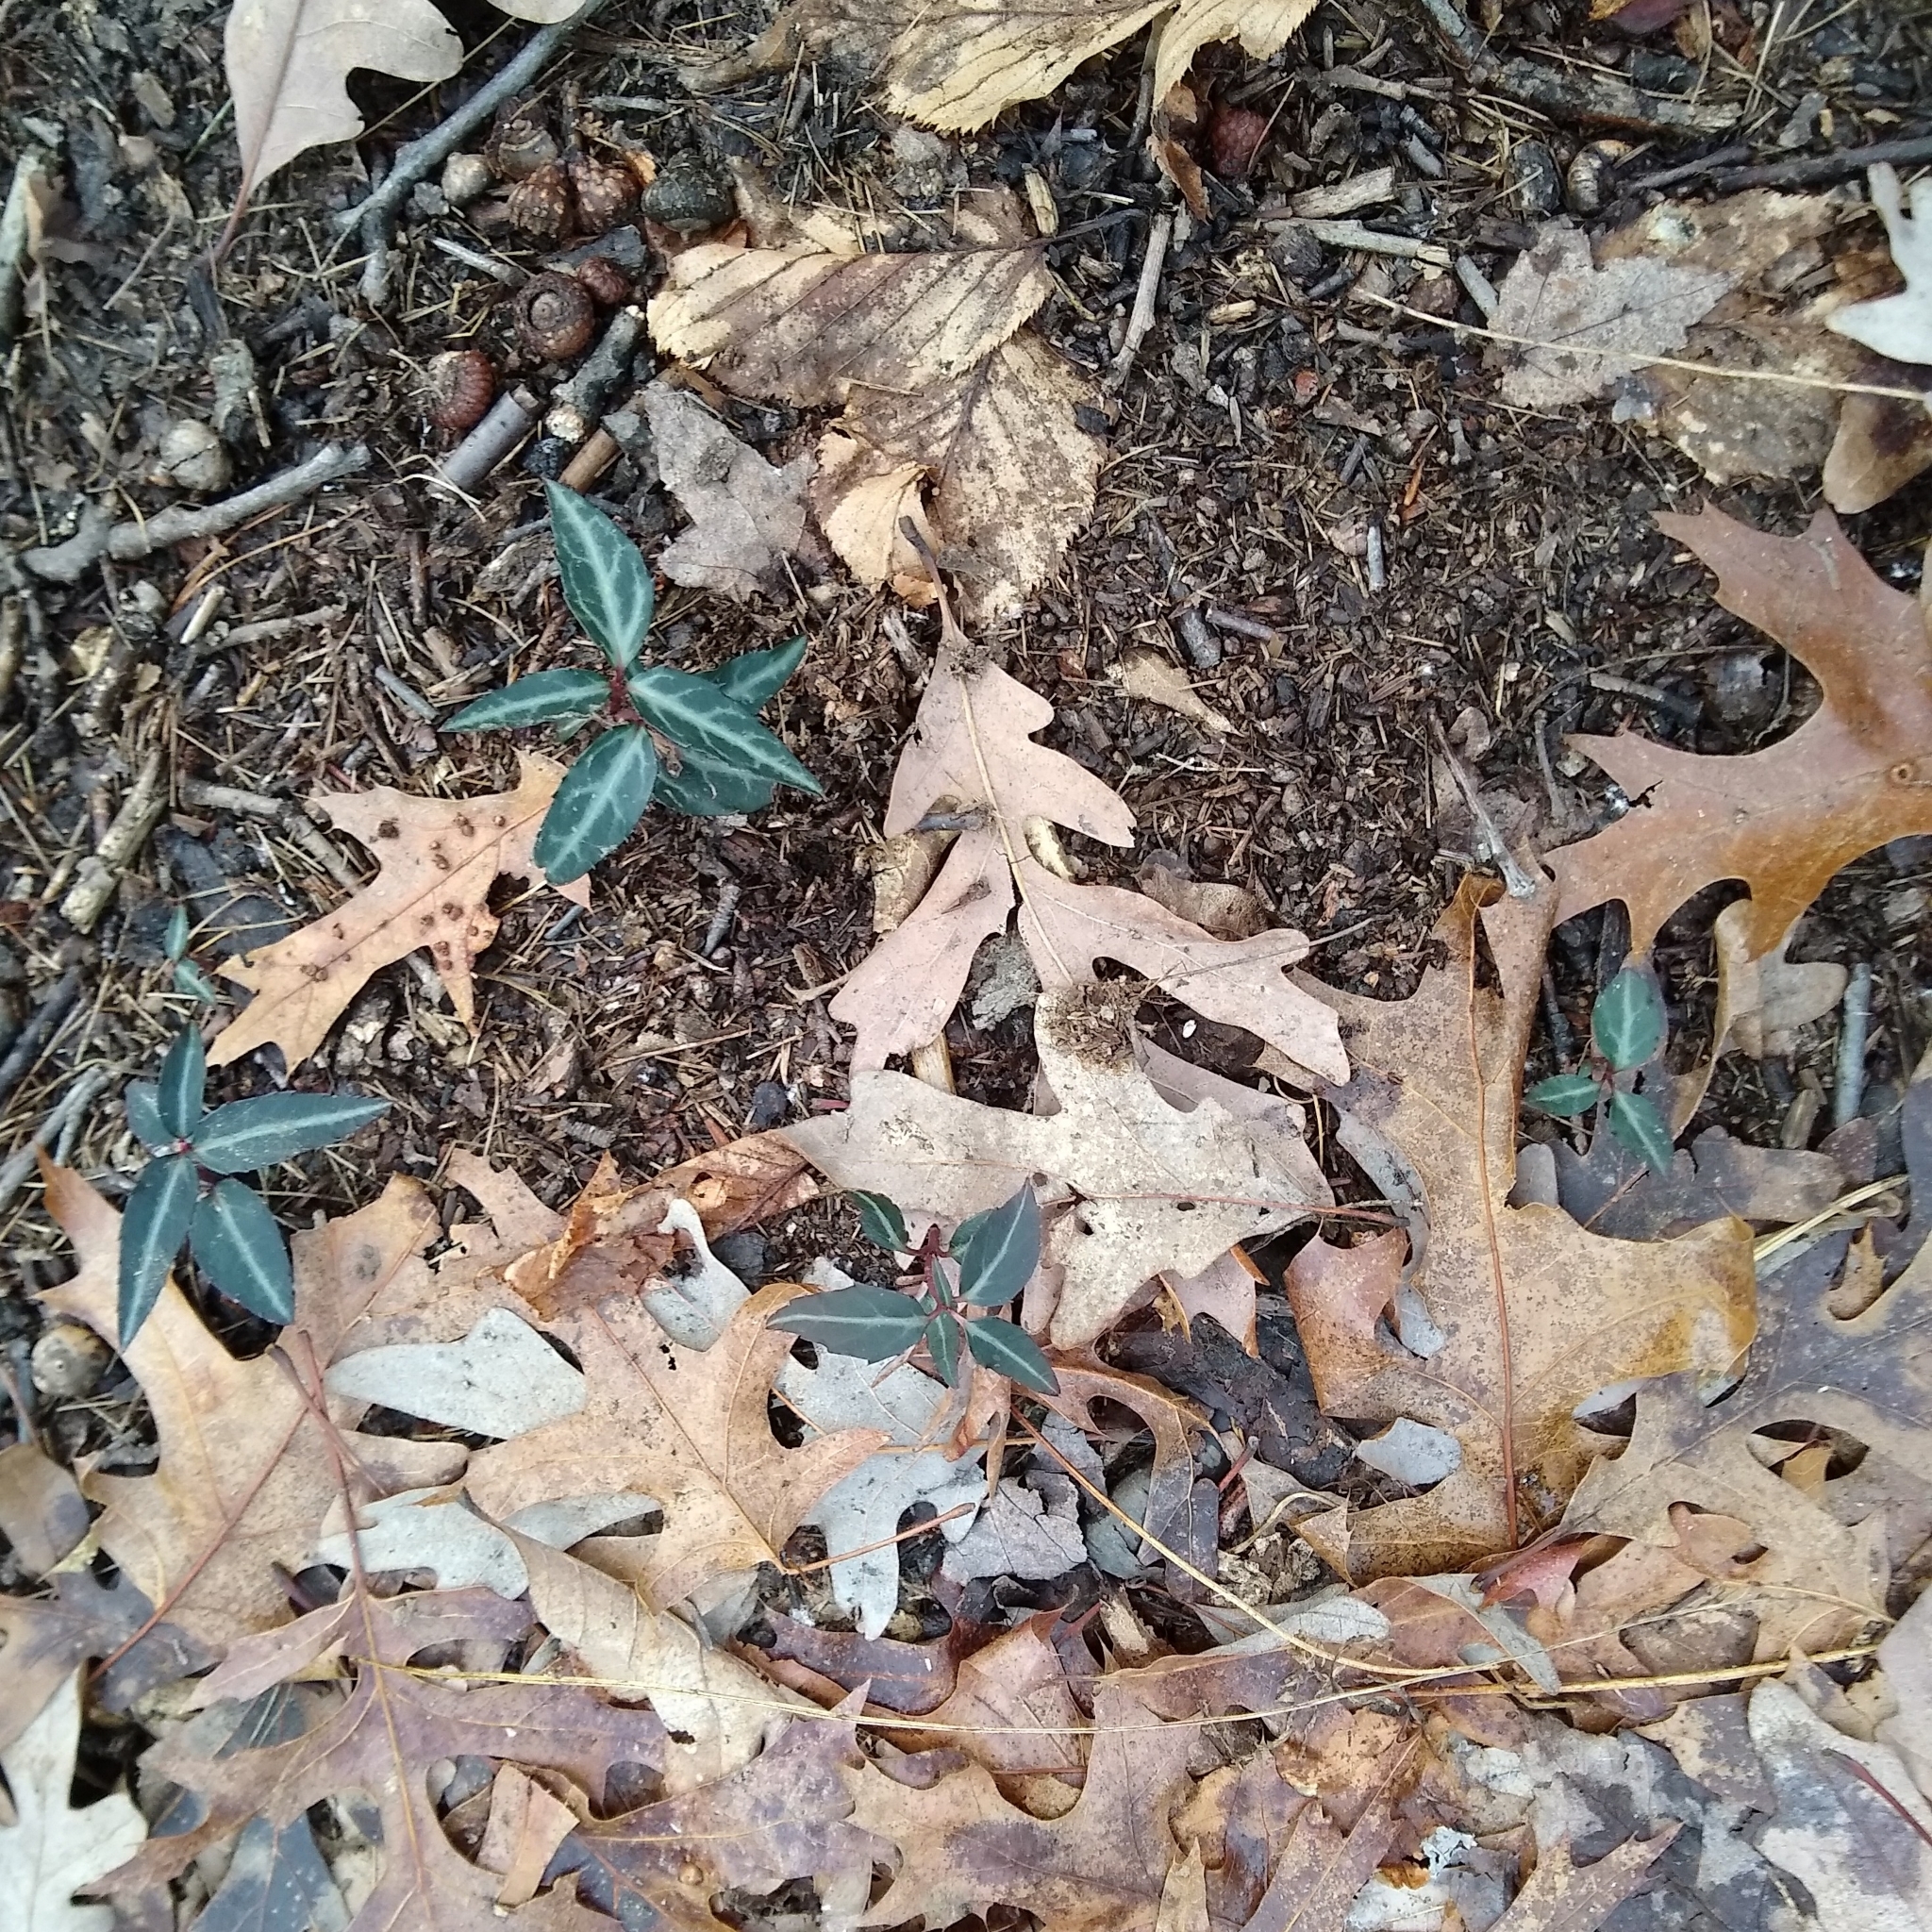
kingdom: Plantae
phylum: Tracheophyta
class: Magnoliopsida
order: Ericales
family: Ericaceae
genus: Chimaphila
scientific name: Chimaphila maculata
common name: Spotted pipsissewa
